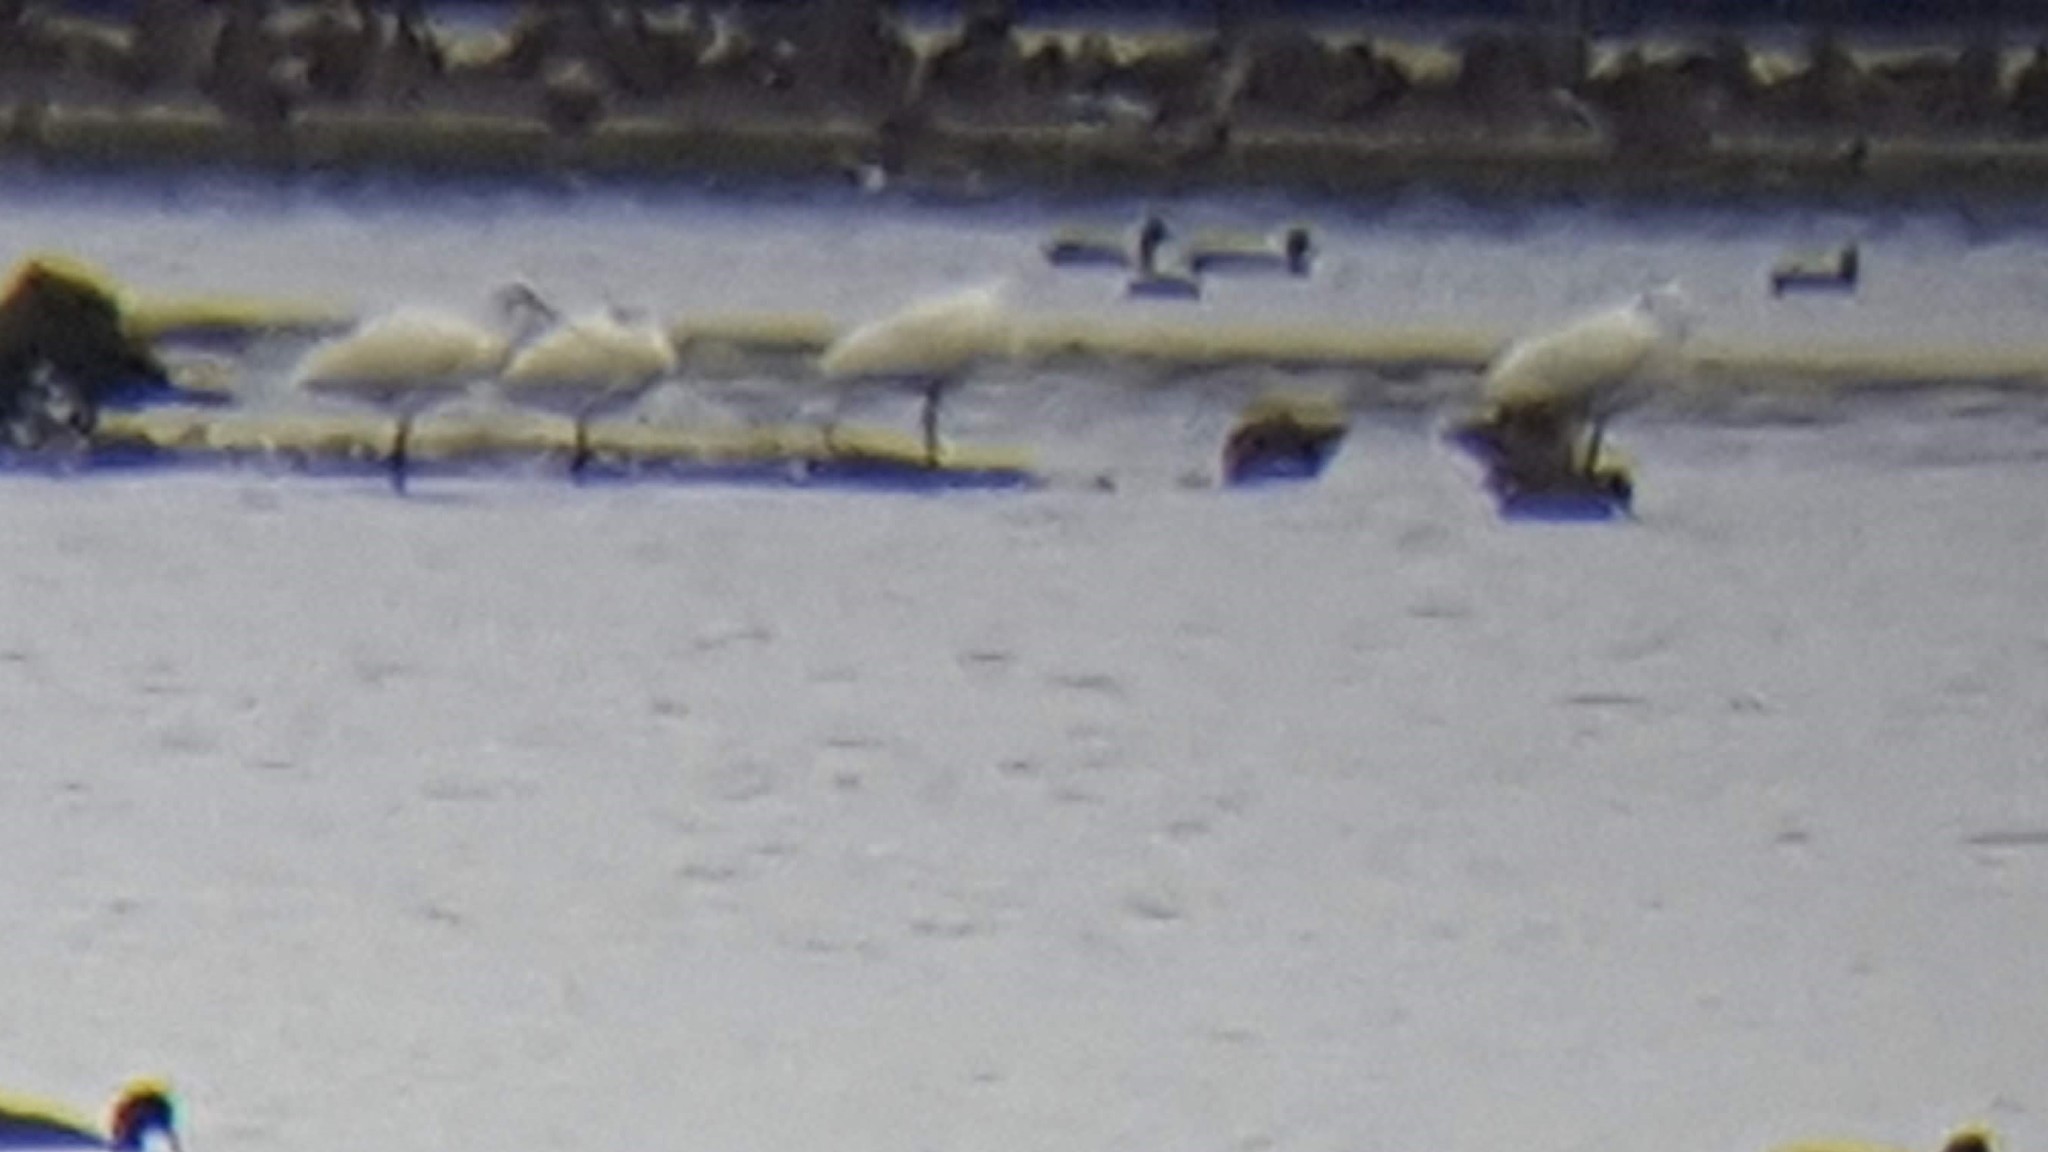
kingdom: Animalia
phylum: Chordata
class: Aves
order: Pelecaniformes
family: Threskiornithidae
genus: Platalea
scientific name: Platalea leucorodia
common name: Eurasian spoonbill
